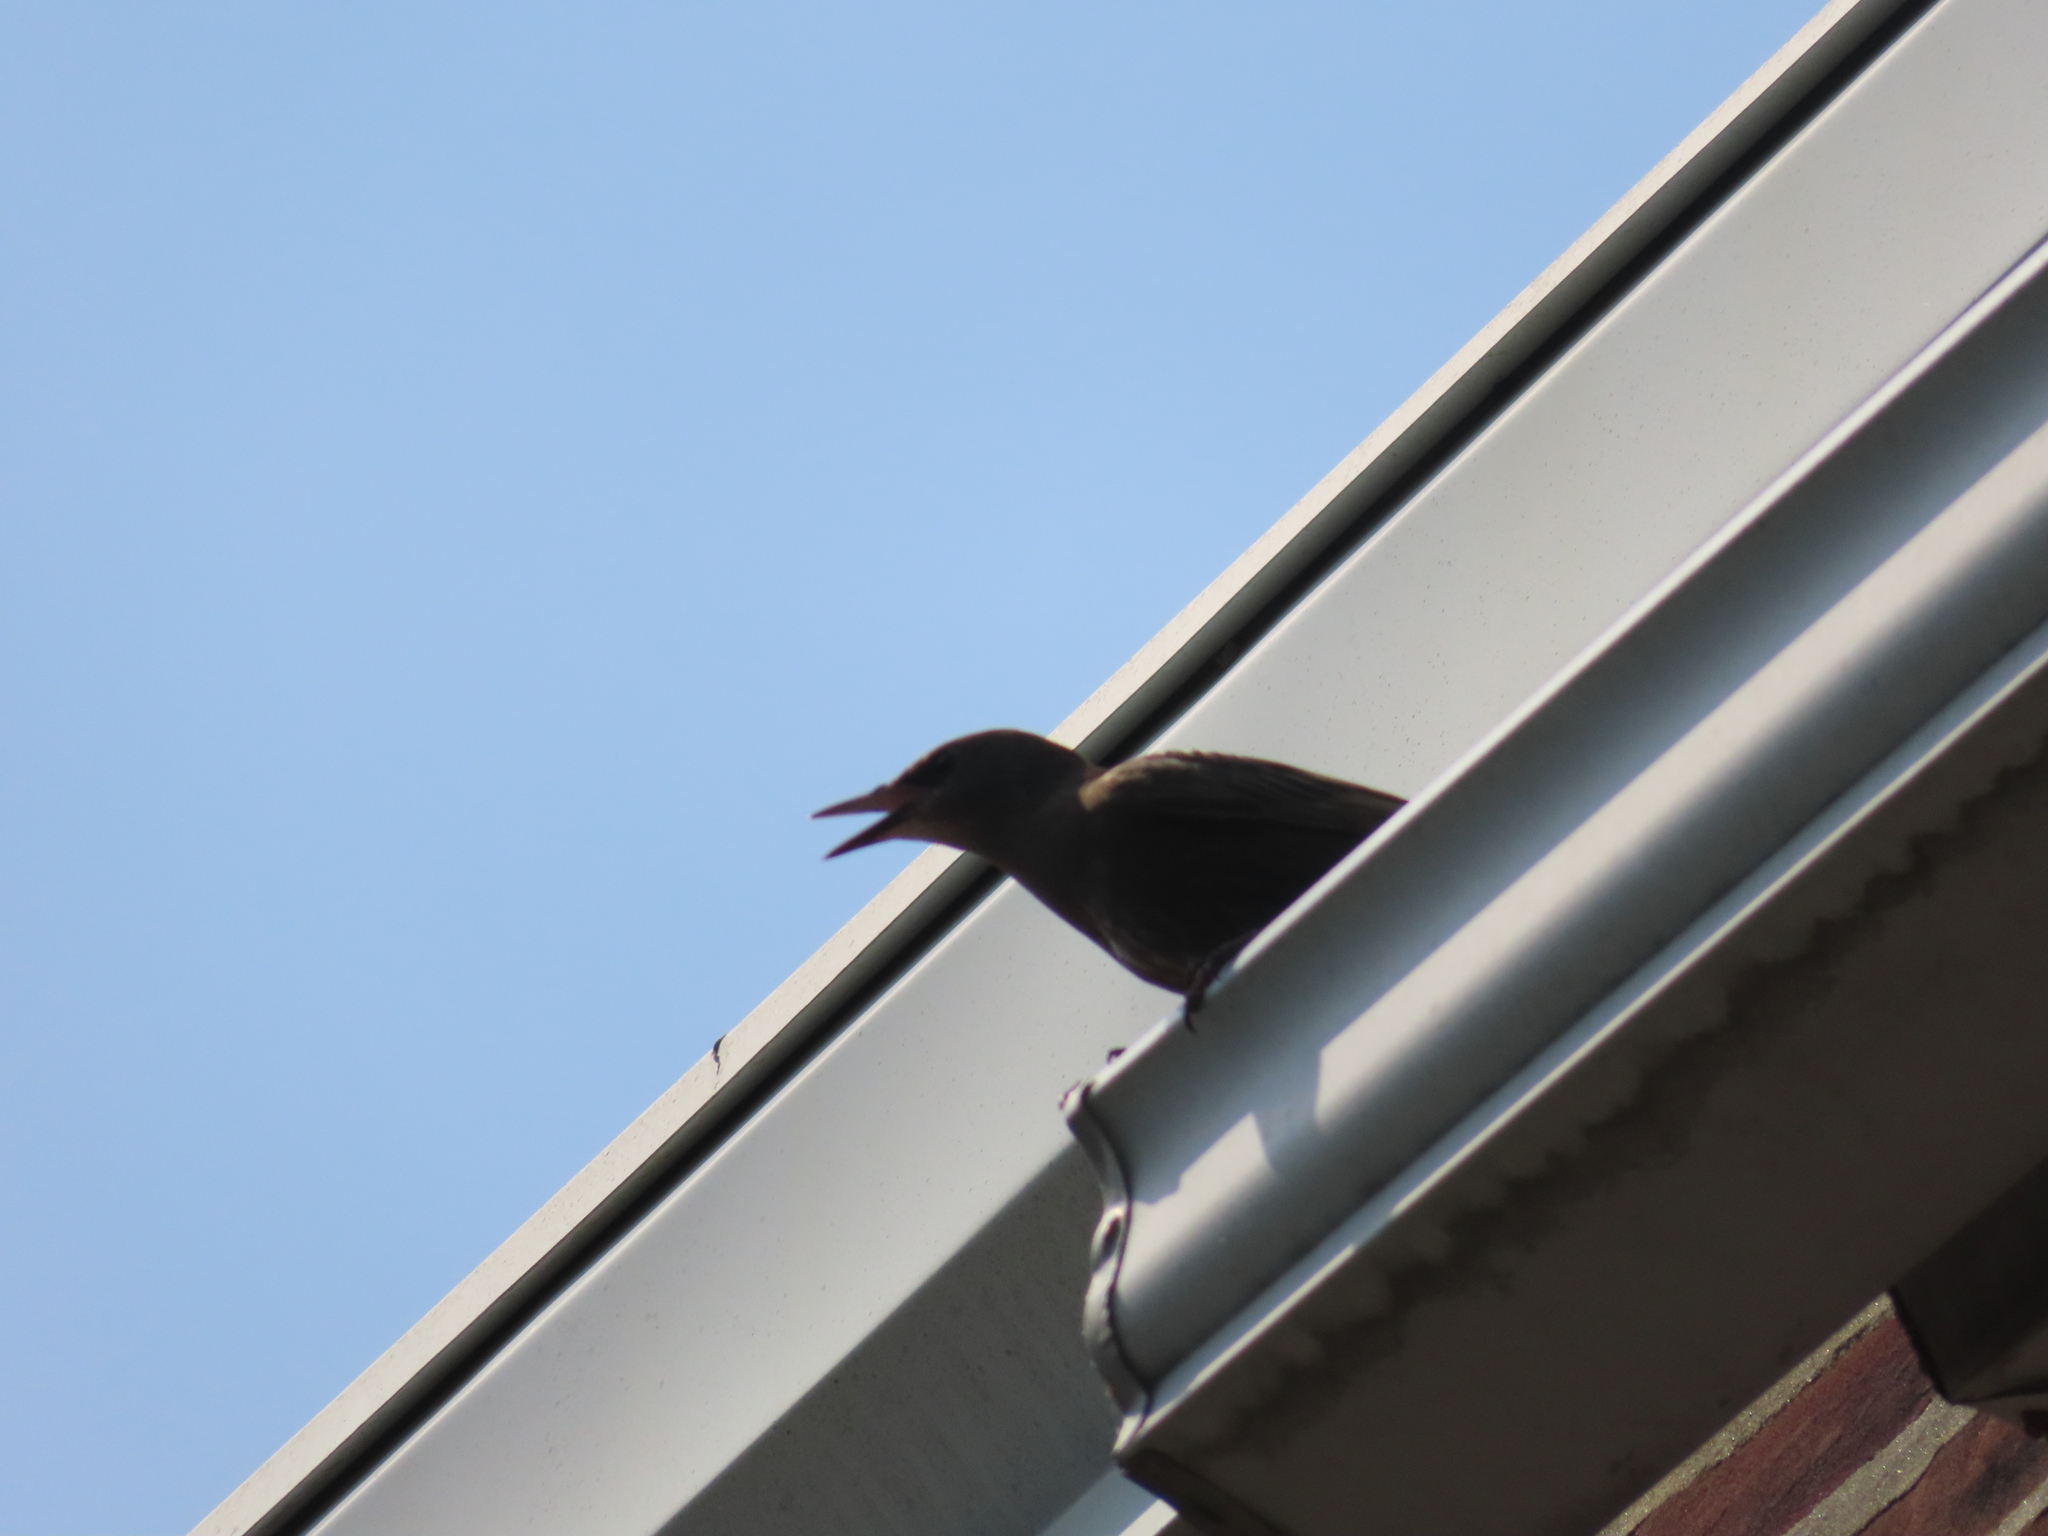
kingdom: Animalia
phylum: Chordata
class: Aves
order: Passeriformes
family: Sturnidae
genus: Sturnus
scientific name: Sturnus vulgaris
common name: Common starling
